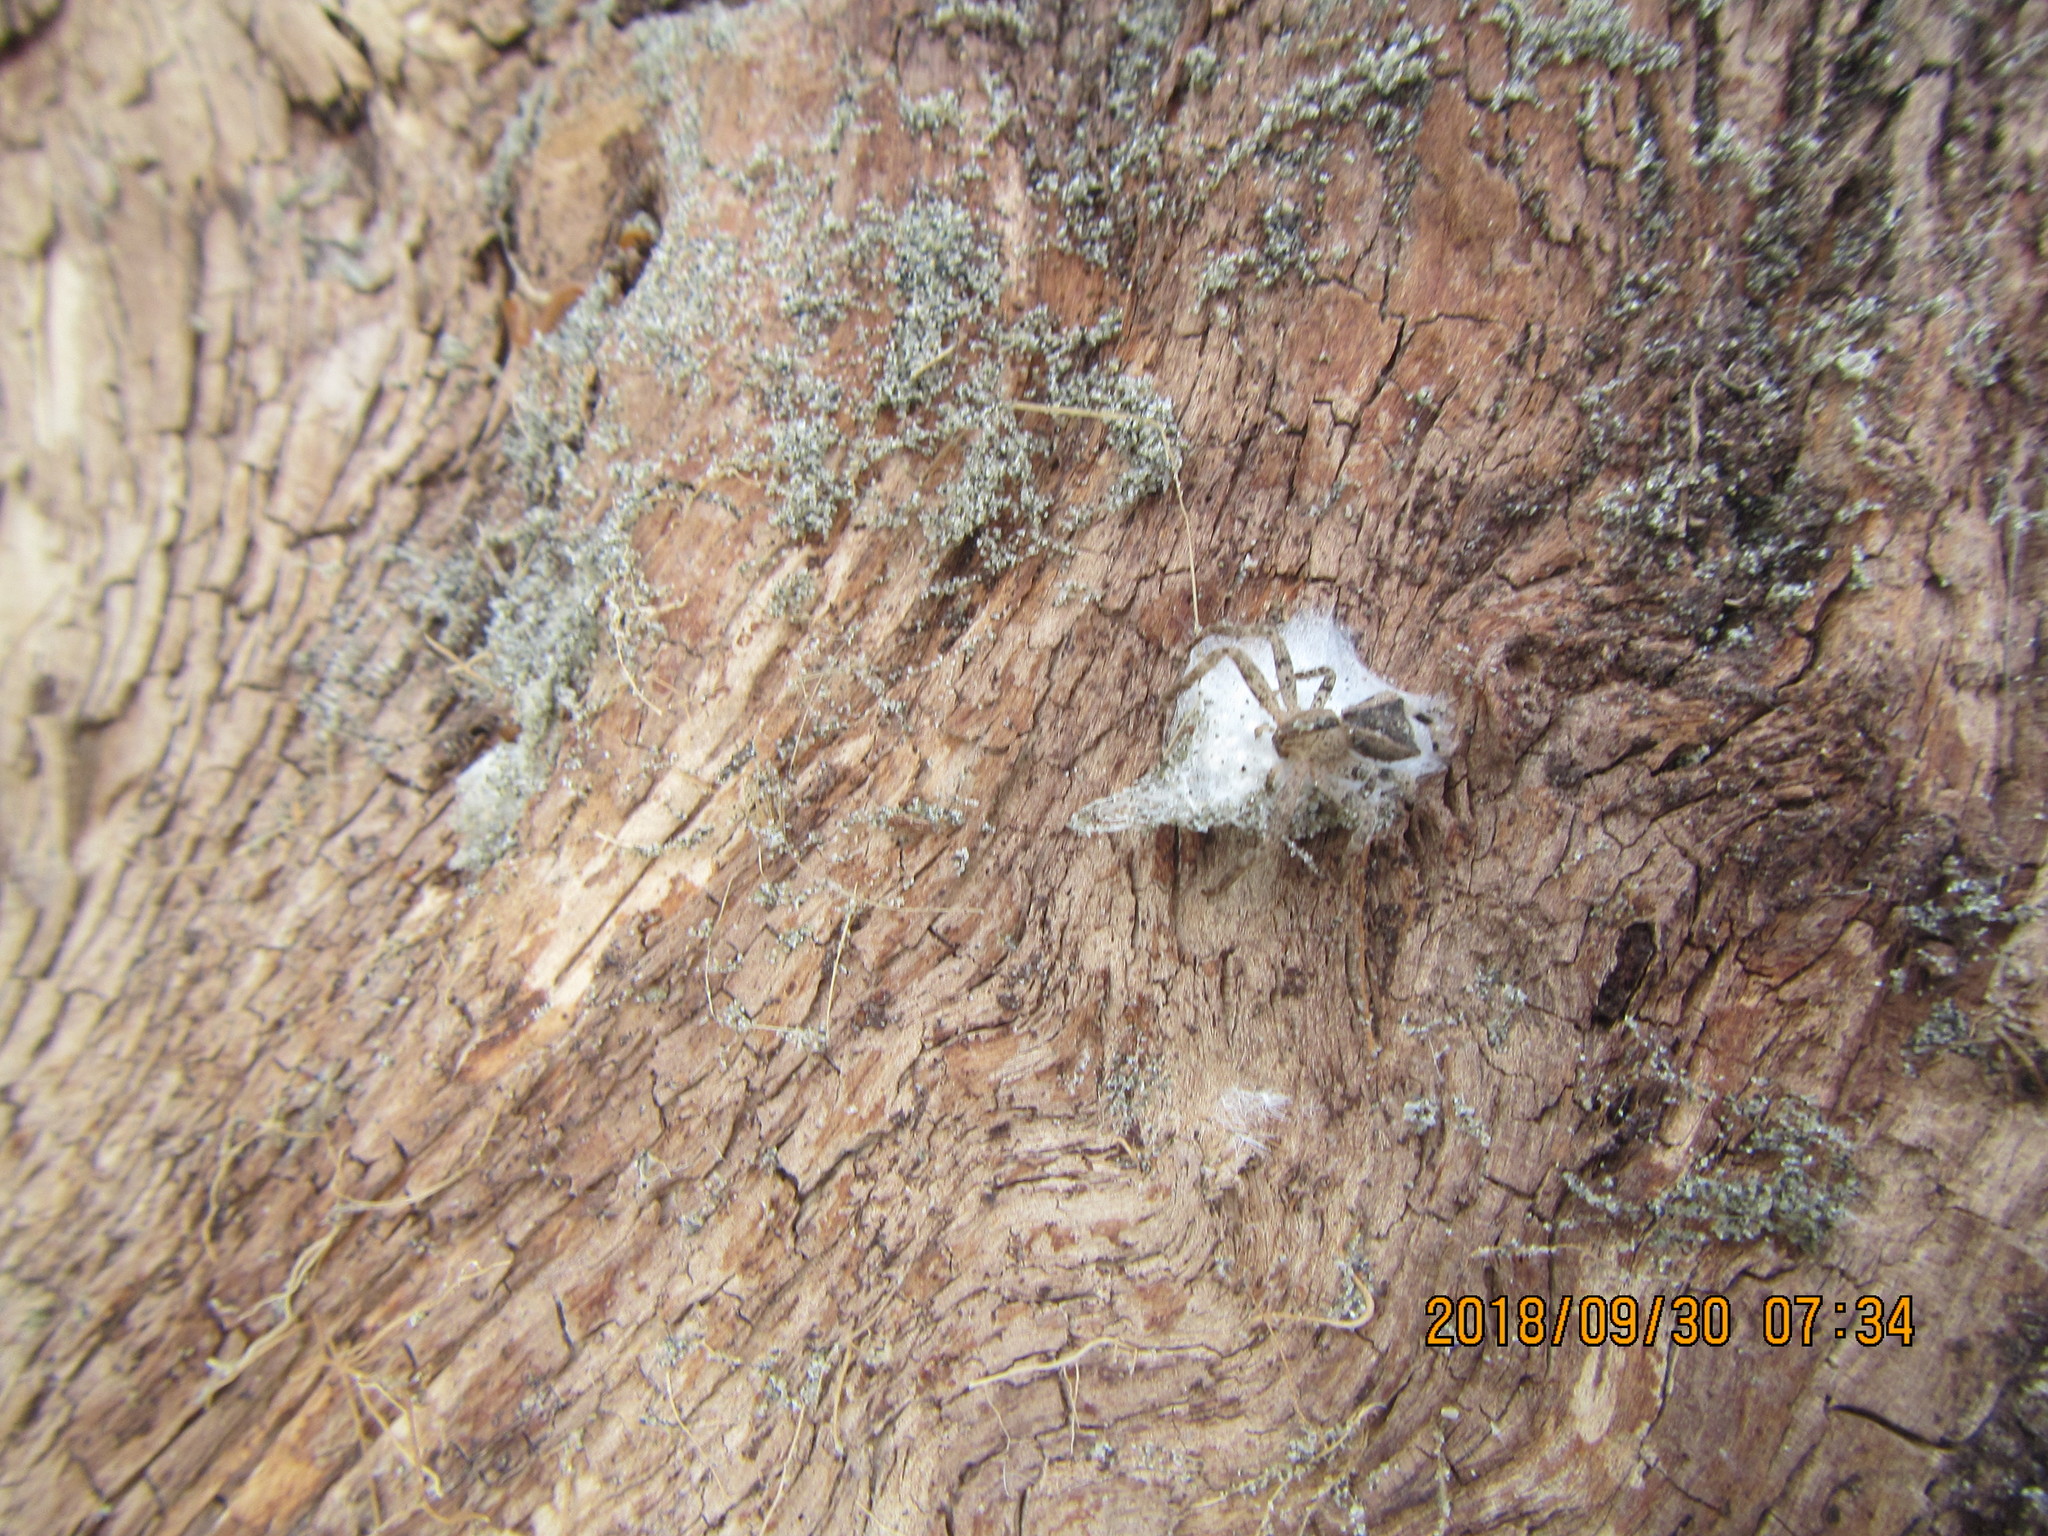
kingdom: Animalia
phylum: Arthropoda
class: Arachnida
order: Araneae
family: Thomisidae
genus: Sidymella
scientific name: Sidymella trapezia
